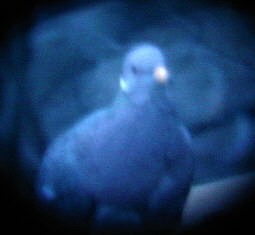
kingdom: Animalia
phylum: Chordata
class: Aves
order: Columbiformes
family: Columbidae
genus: Patagioenas
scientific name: Patagioenas fasciata
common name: Band-tailed pigeon
